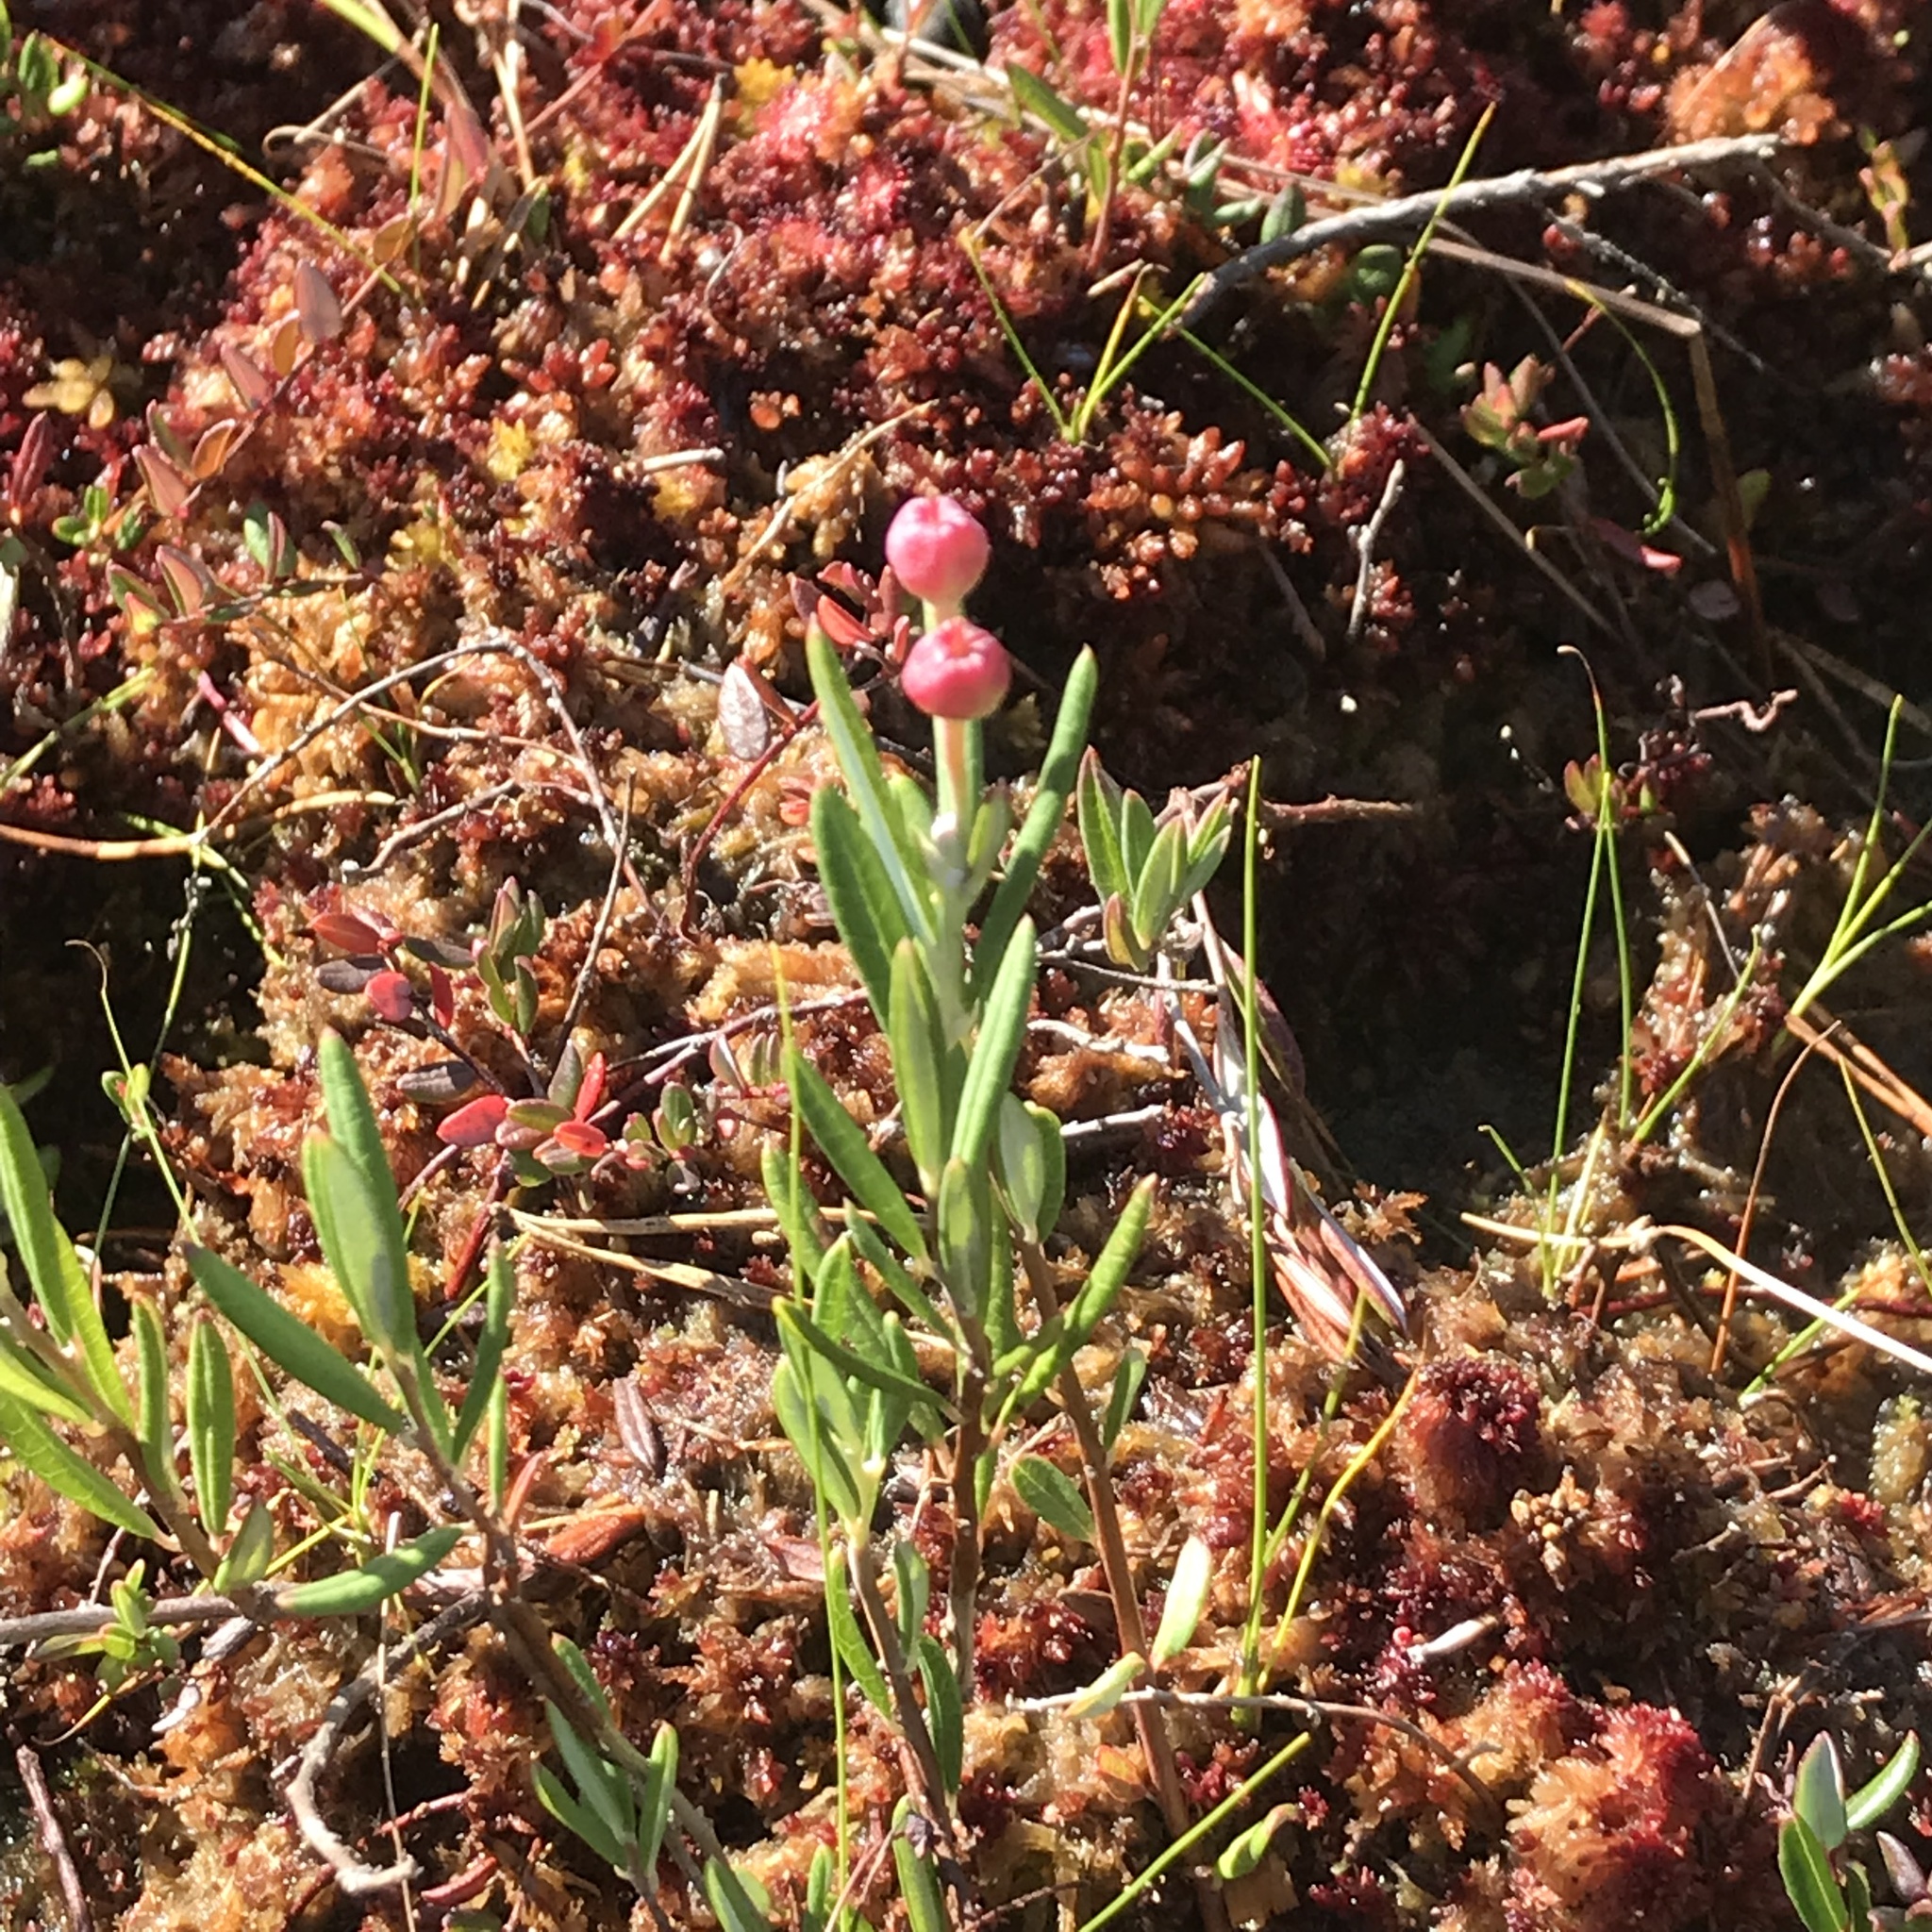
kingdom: Plantae
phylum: Tracheophyta
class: Magnoliopsida
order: Ericales
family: Ericaceae
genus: Andromeda
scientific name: Andromeda polifolia
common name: Bog-rosemary
